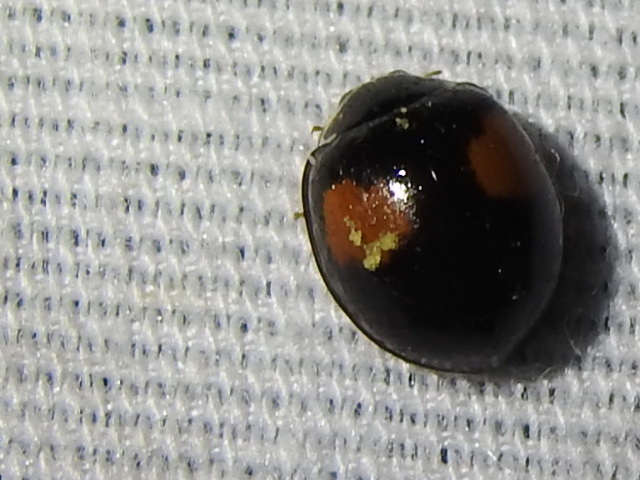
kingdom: Animalia
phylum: Arthropoda
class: Insecta
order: Coleoptera
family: Coccinellidae
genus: Olla
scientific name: Olla v-nigrum
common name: Ashy gray lady beetle
